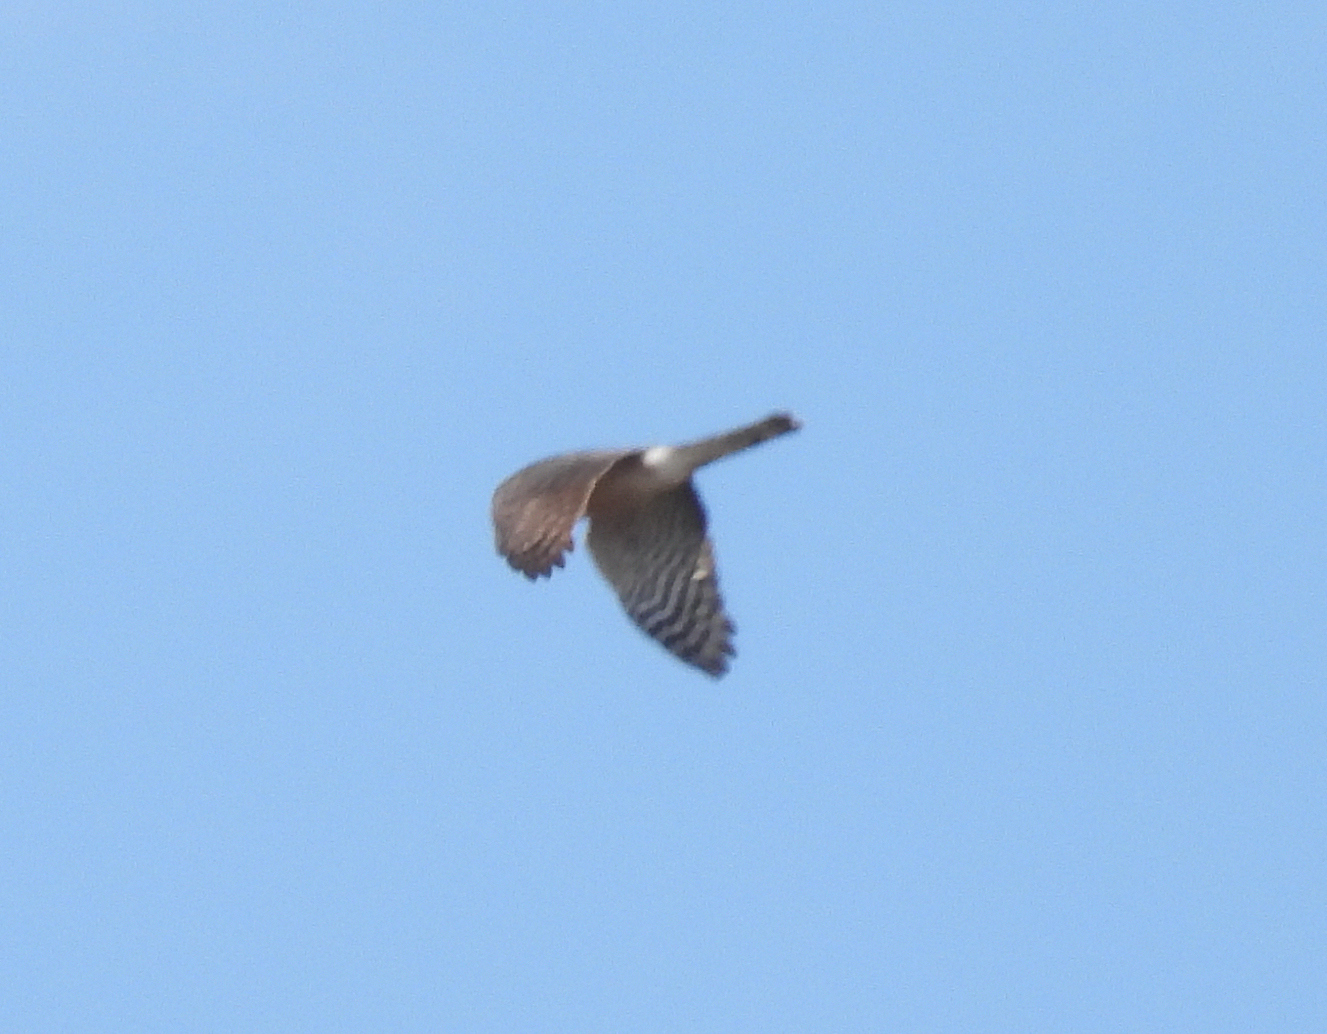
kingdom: Animalia
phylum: Chordata
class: Aves
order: Accipitriformes
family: Accipitridae
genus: Accipiter
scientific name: Accipiter striatus
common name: Sharp-shinned hawk
